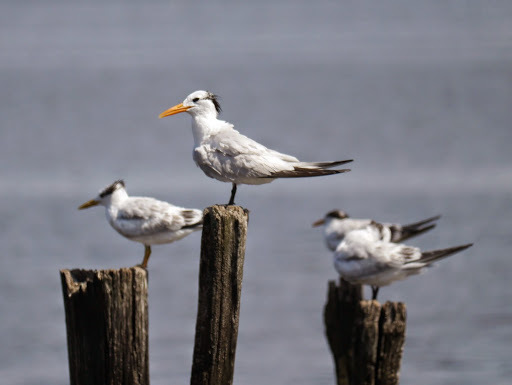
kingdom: Animalia
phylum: Chordata
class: Aves
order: Charadriiformes
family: Laridae
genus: Thalasseus
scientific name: Thalasseus maximus
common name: Royal tern
